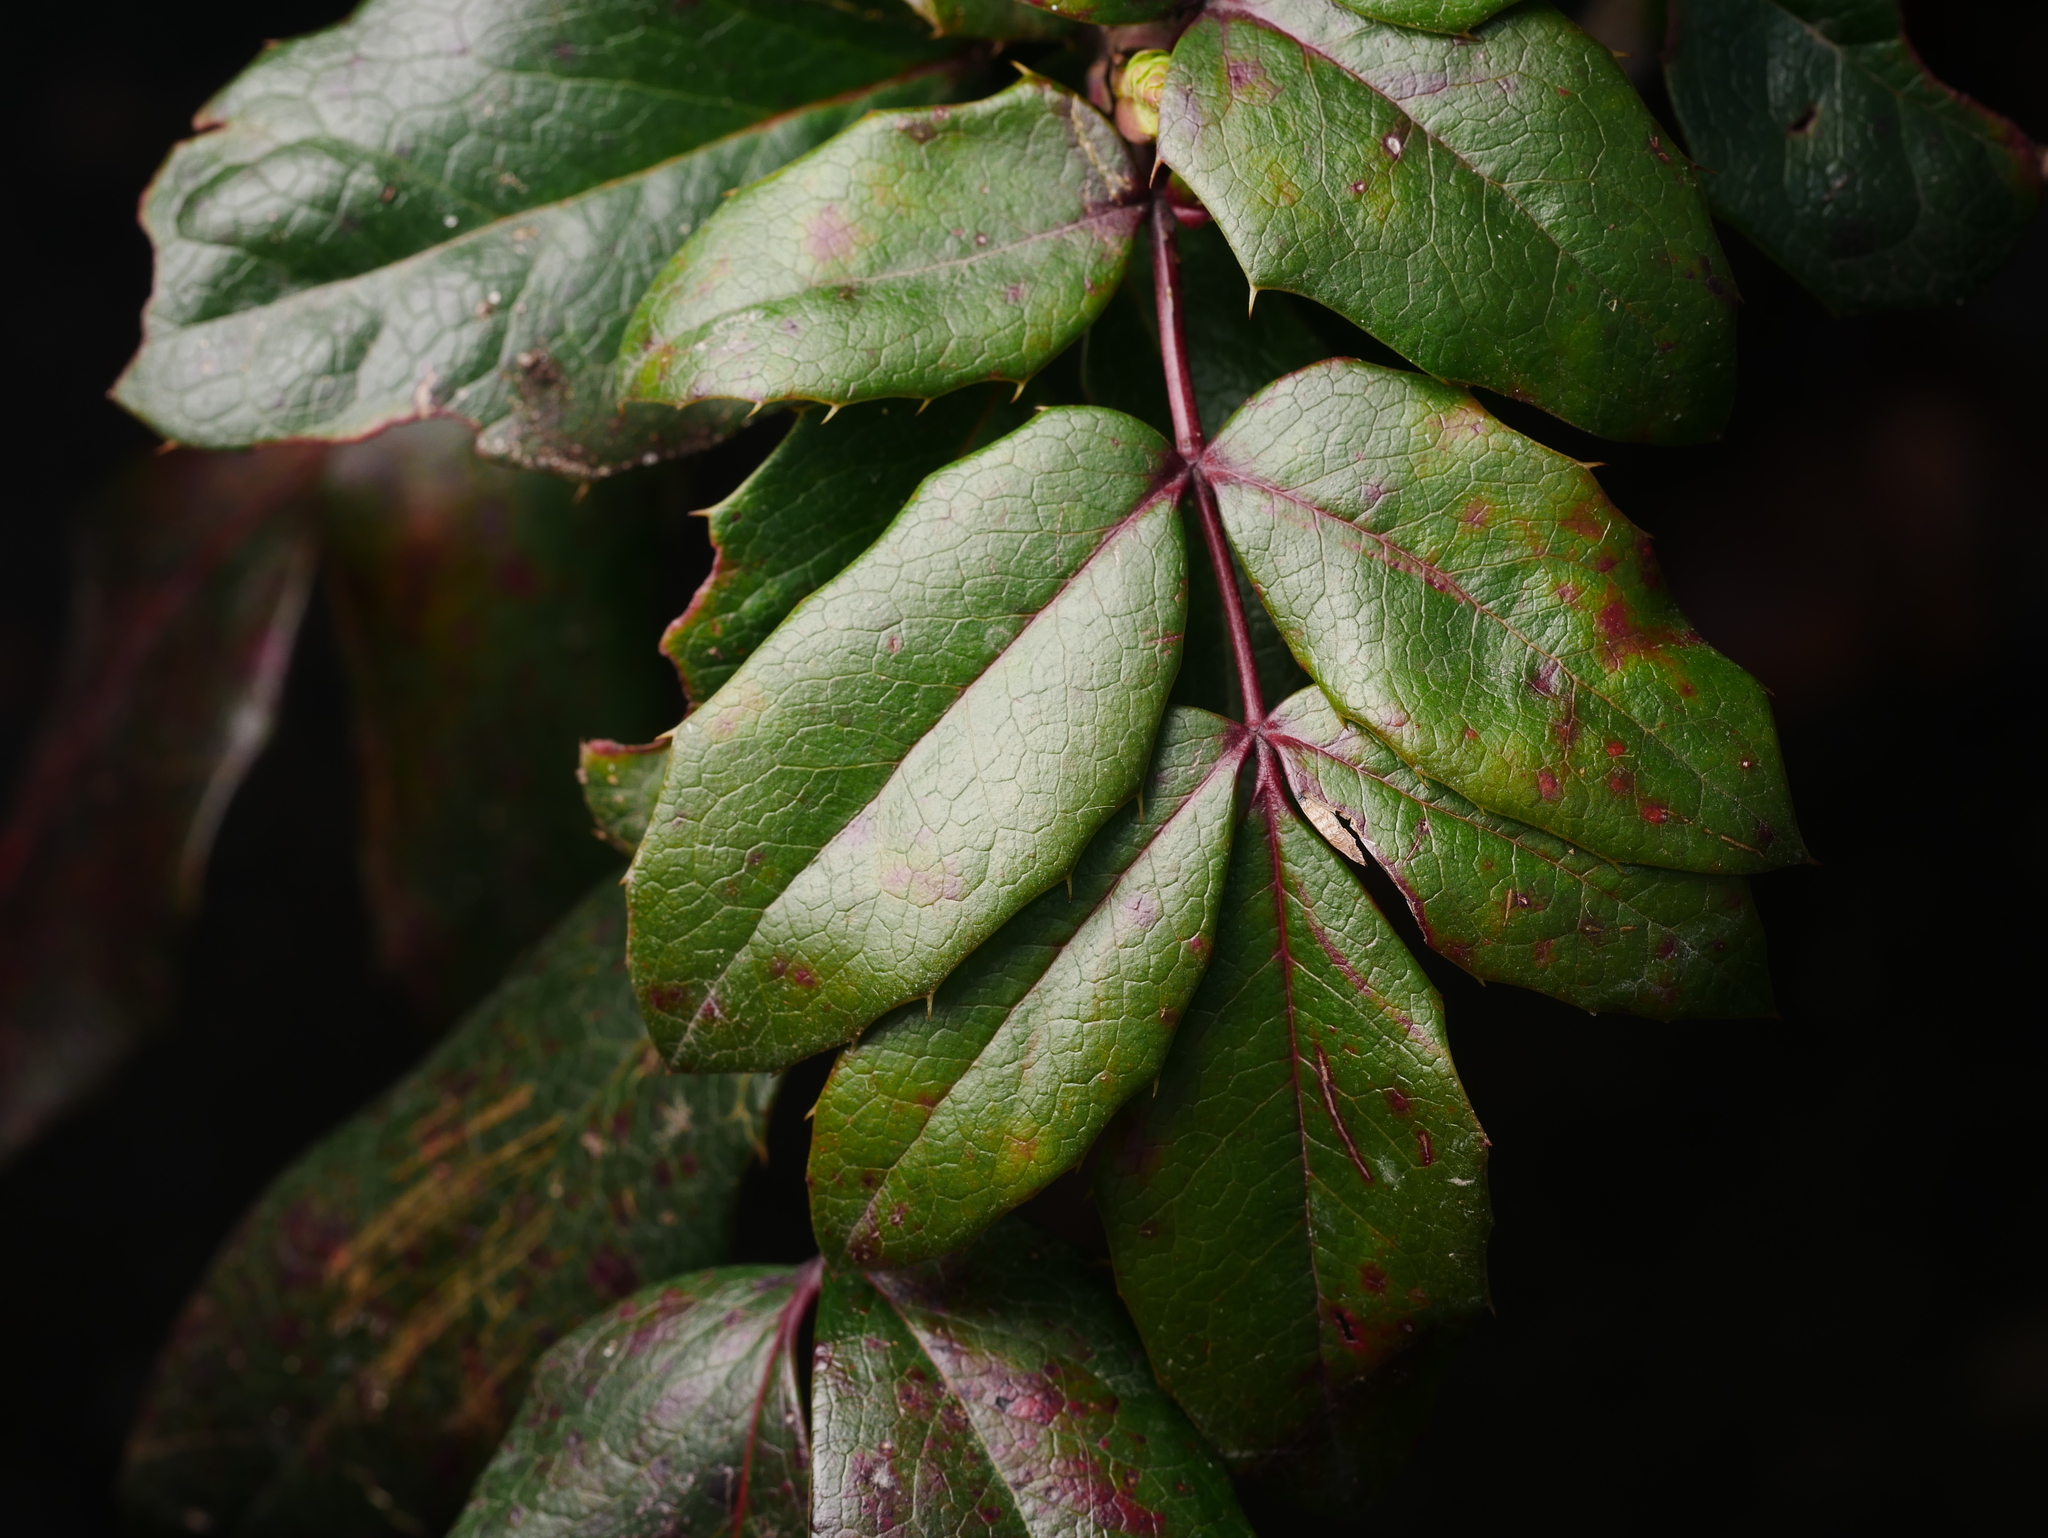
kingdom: Plantae
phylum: Tracheophyta
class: Magnoliopsida
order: Ranunculales
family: Berberidaceae
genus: Mahonia
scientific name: Mahonia aquifolium
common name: Oregon-grape
